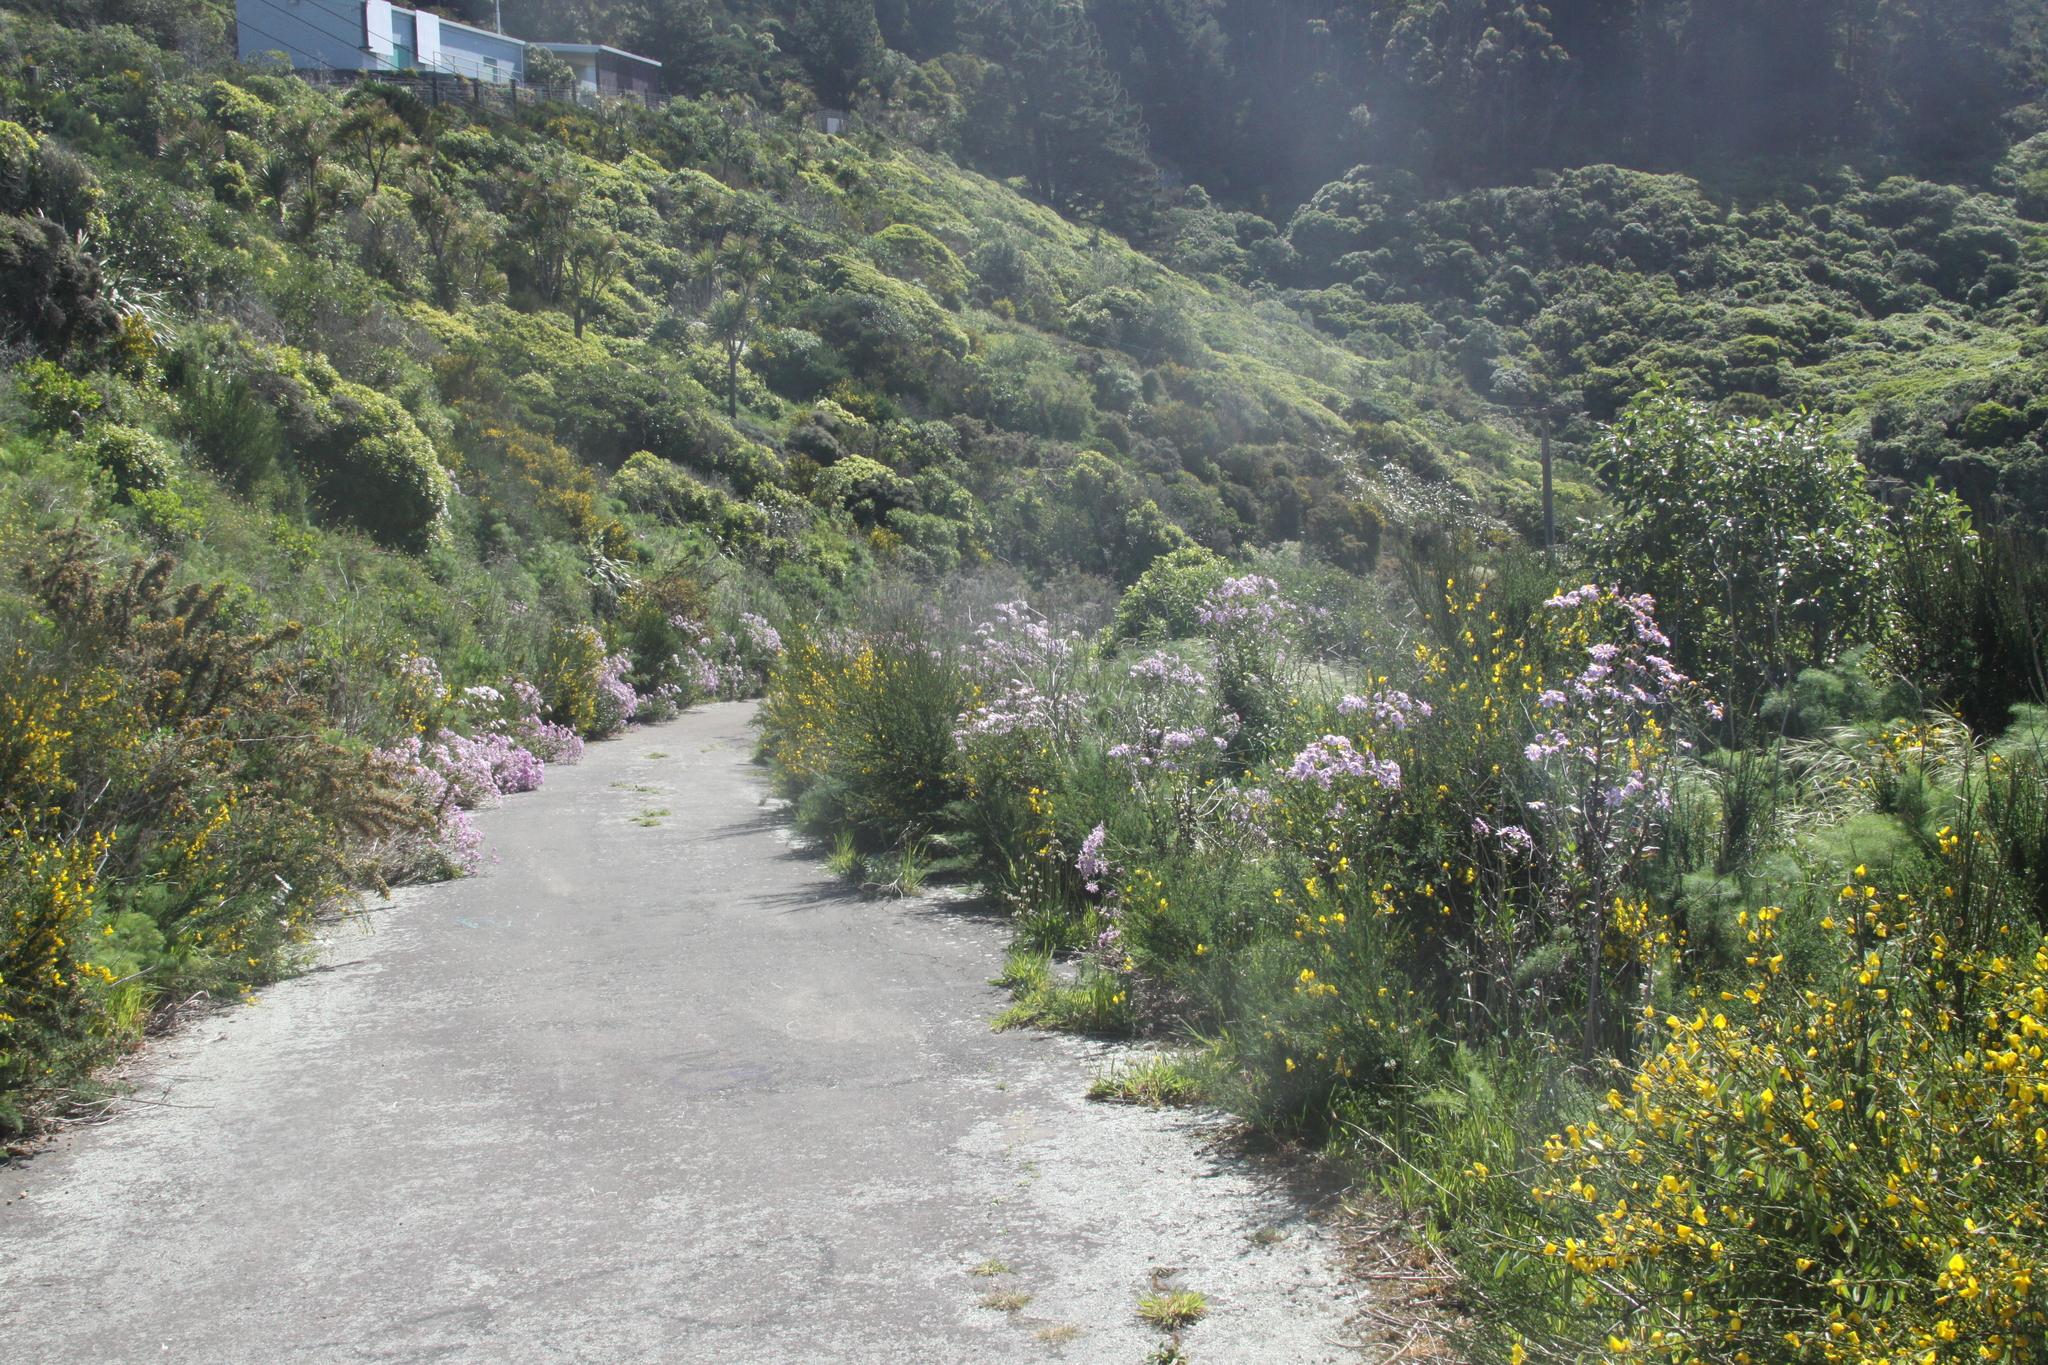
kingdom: Plantae
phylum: Tracheophyta
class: Magnoliopsida
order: Asterales
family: Asteraceae
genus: Senecio
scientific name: Senecio glastifolius
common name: Woad-leaved ragwort
